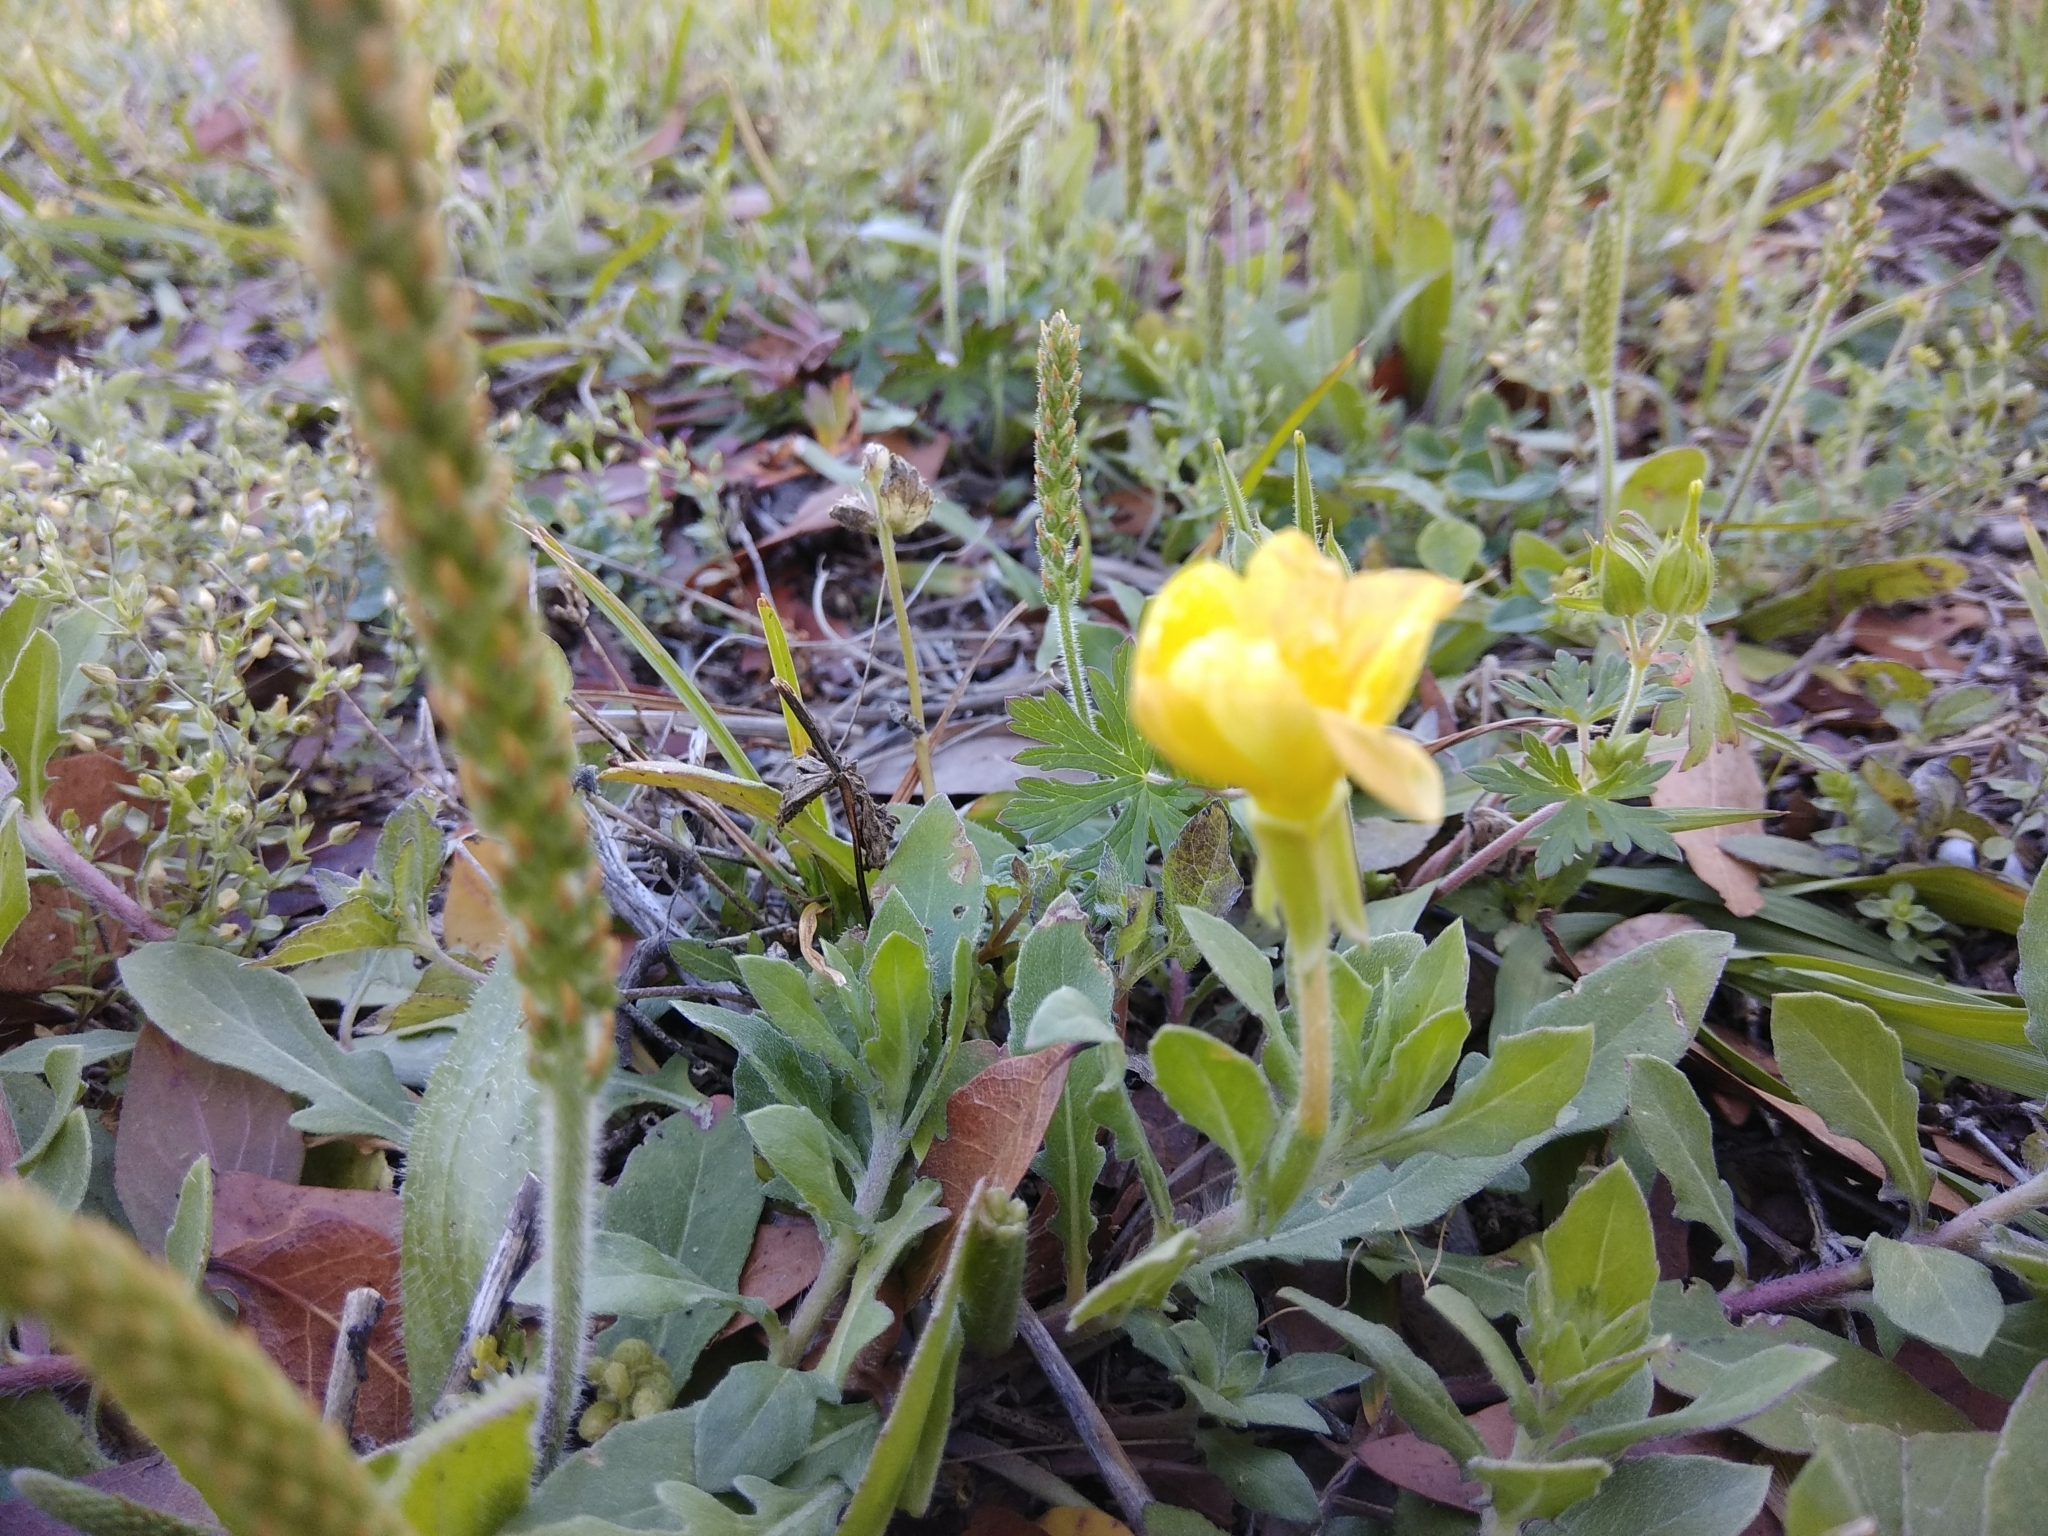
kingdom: Plantae
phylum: Tracheophyta
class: Magnoliopsida
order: Myrtales
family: Onagraceae
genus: Oenothera
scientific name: Oenothera laciniata
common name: Cut-leaved evening-primrose
